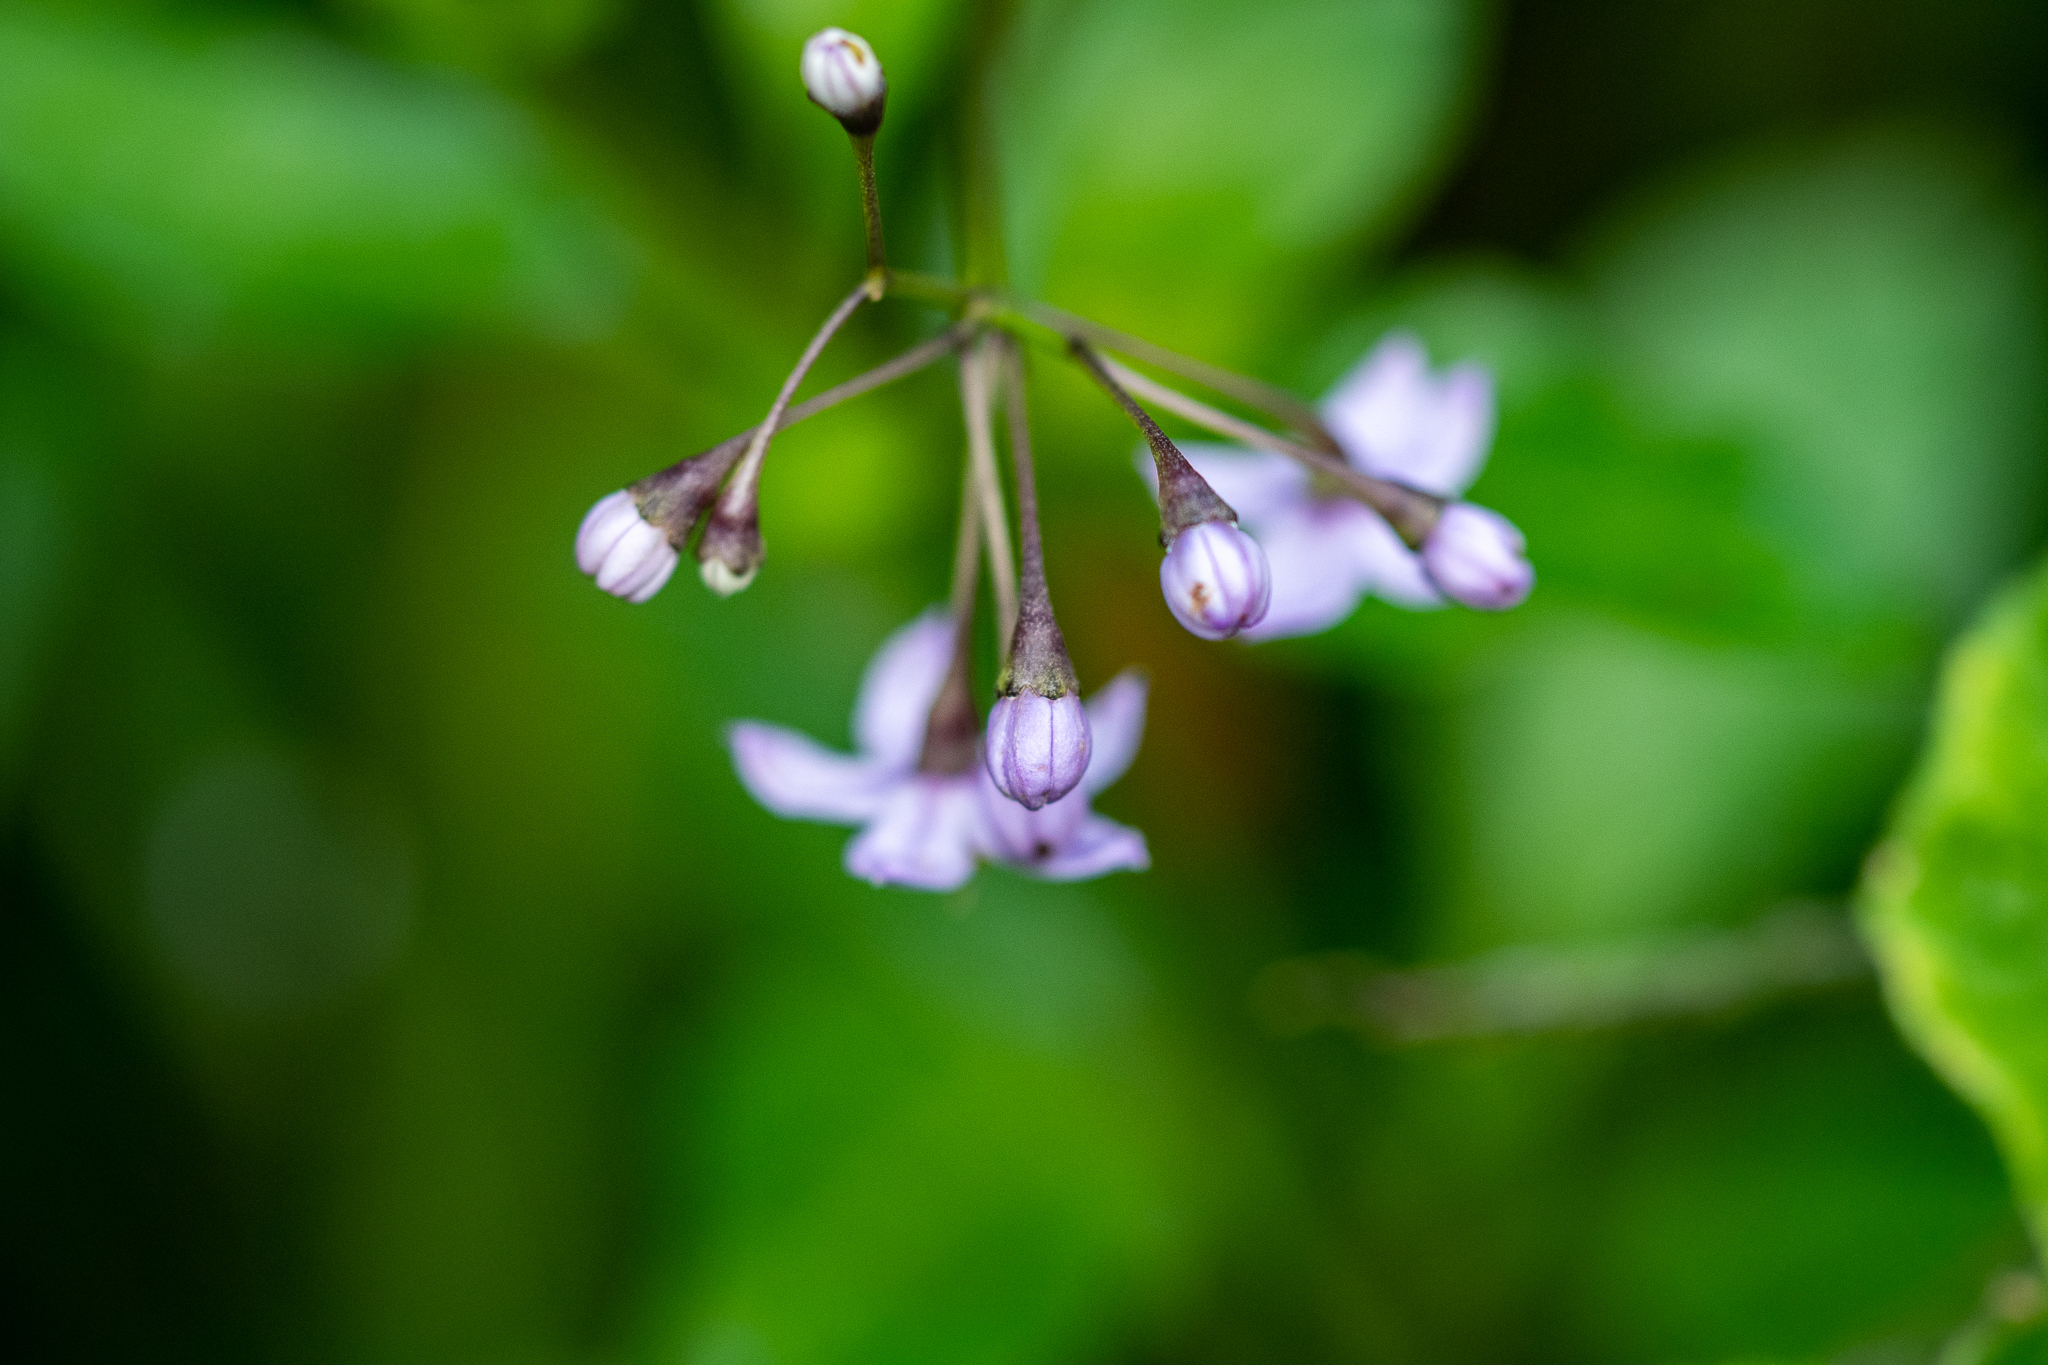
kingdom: Plantae
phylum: Tracheophyta
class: Magnoliopsida
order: Solanales
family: Solanaceae
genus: Solanum
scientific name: Solanum africanum
